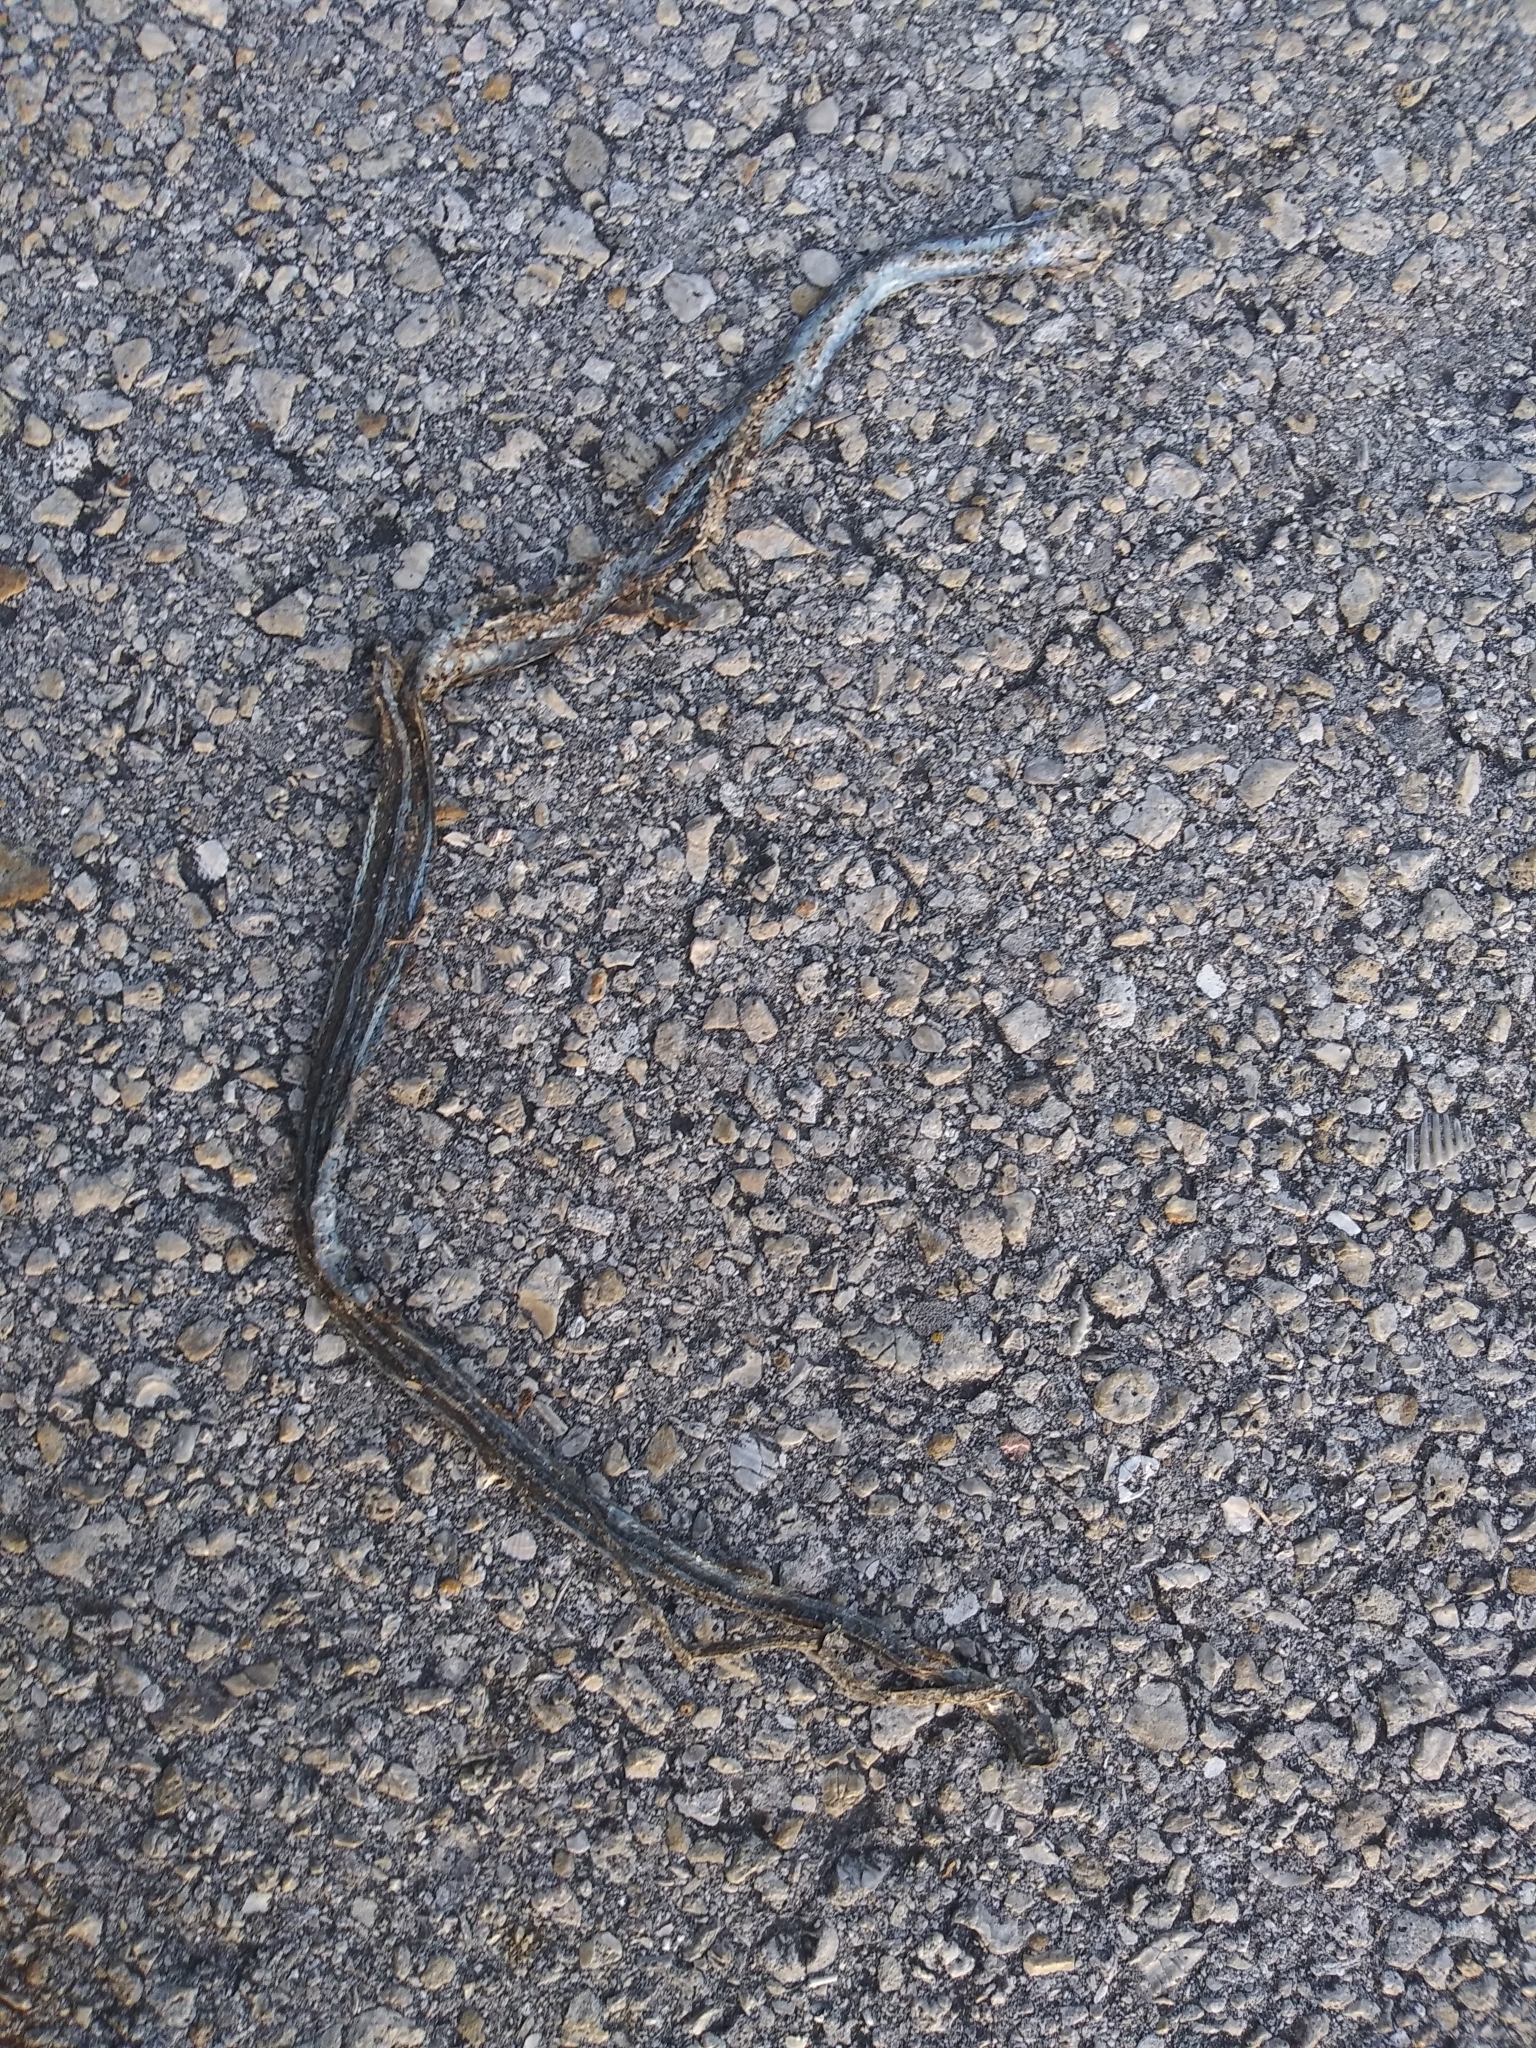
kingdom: Animalia
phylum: Chordata
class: Squamata
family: Colubridae
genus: Thamnophis
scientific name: Thamnophis saurita
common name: Eastern ribbonsnake
